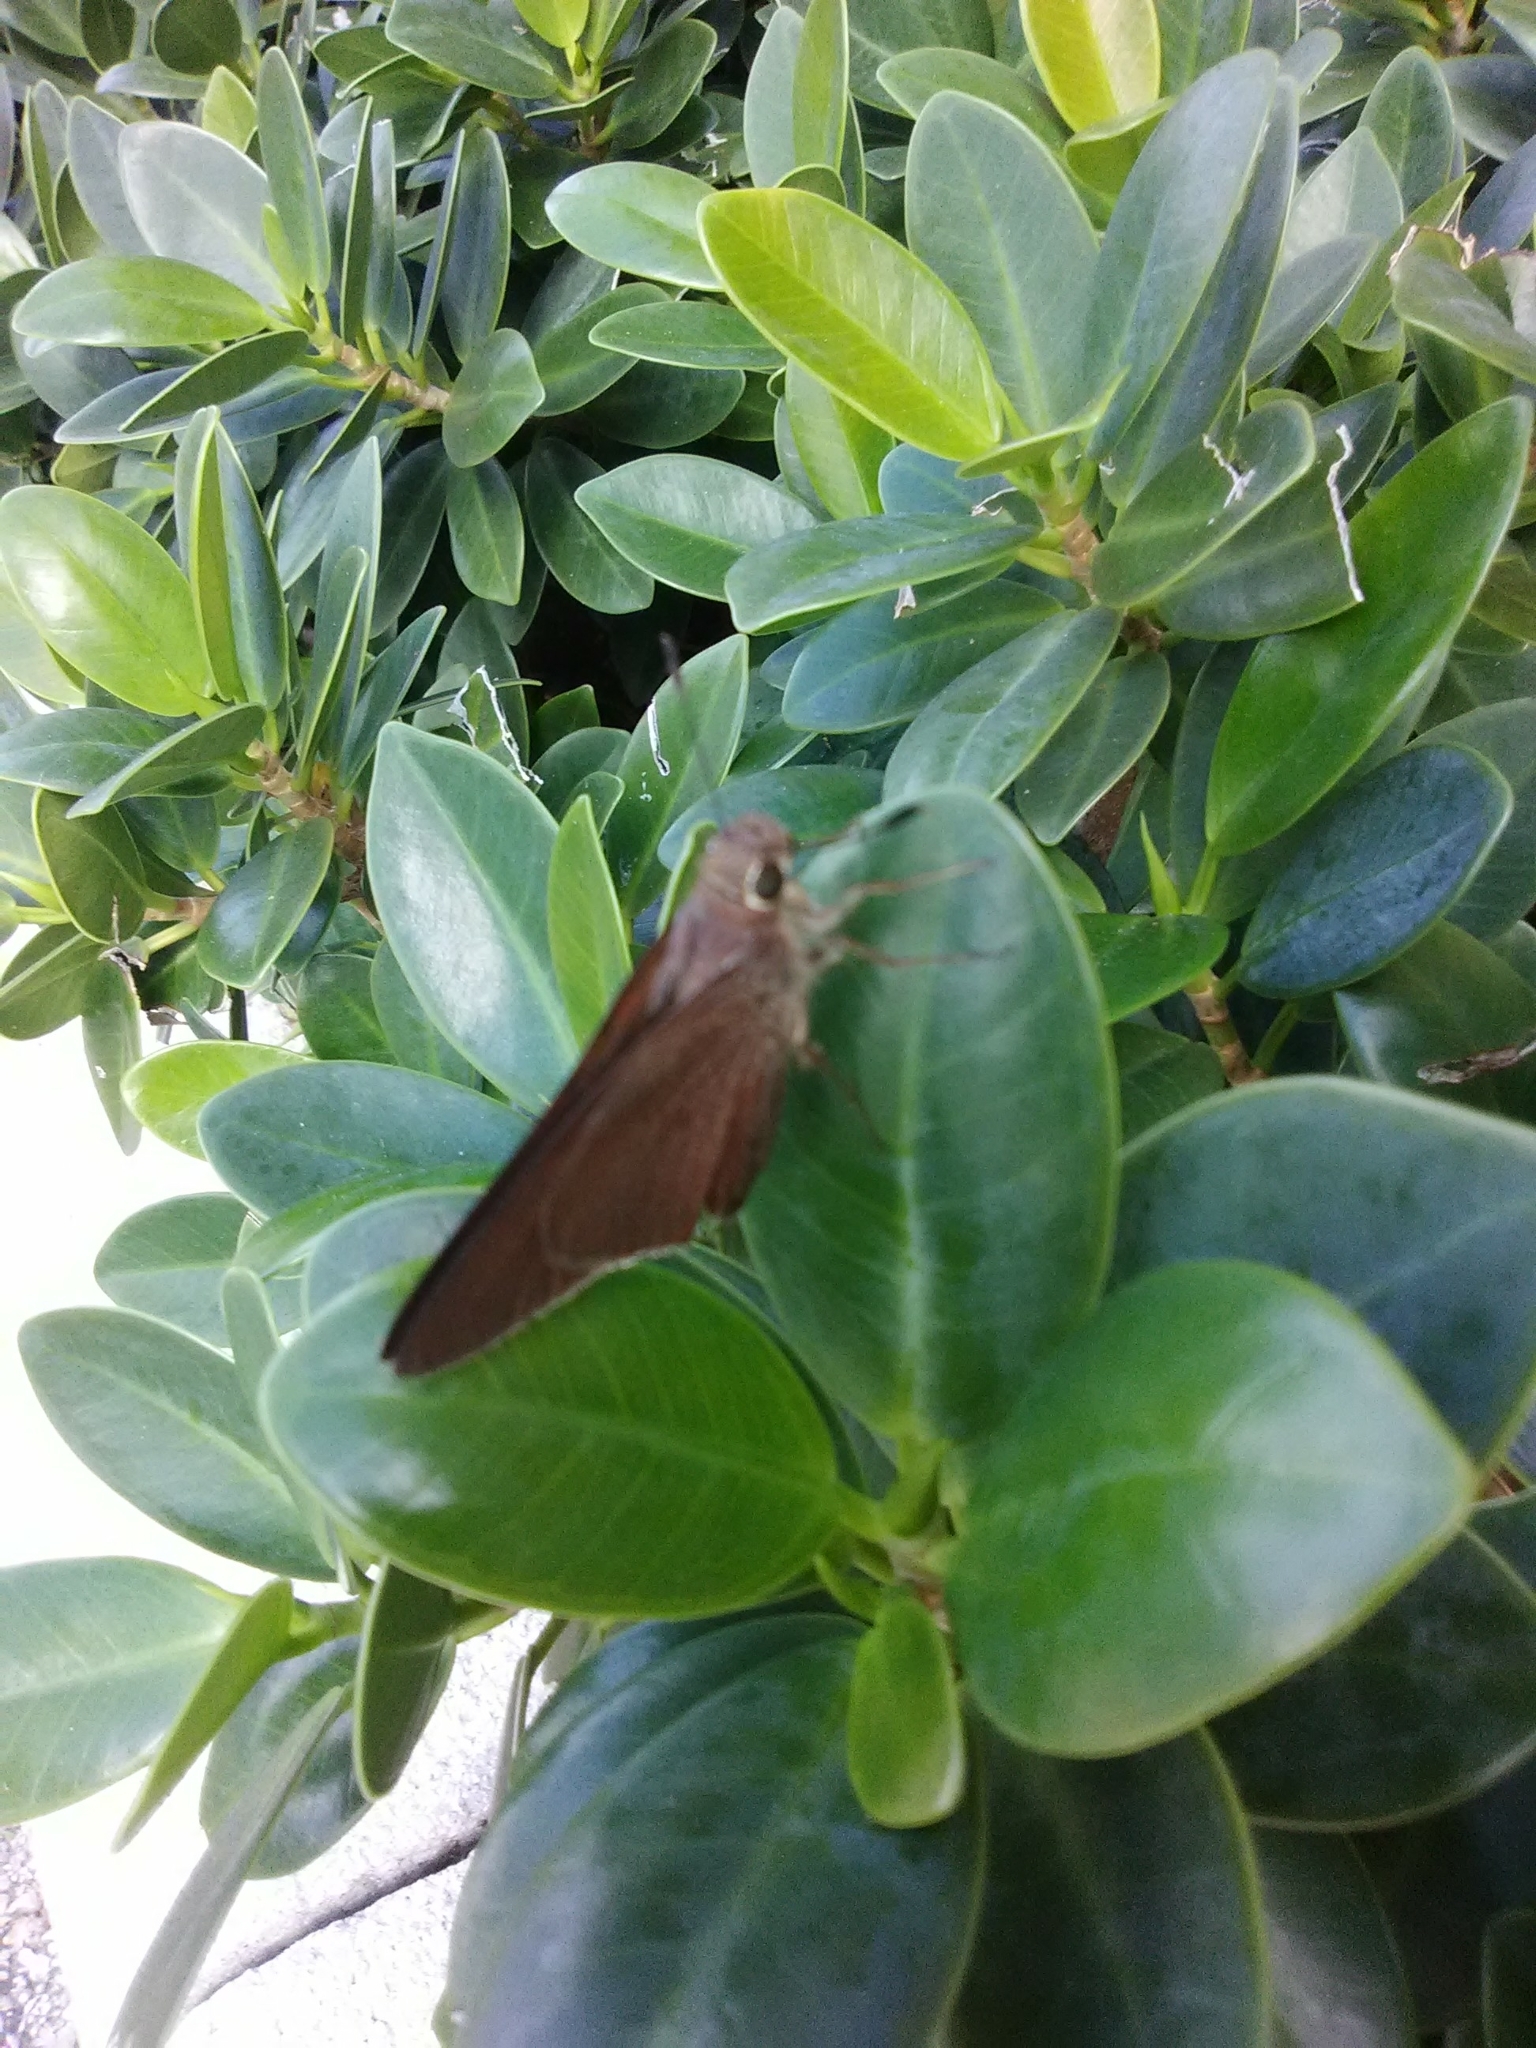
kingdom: Animalia
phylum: Arthropoda
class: Insecta
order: Lepidoptera
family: Hesperiidae
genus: Asbolis
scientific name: Asbolis capucinus
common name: Monk skipper
